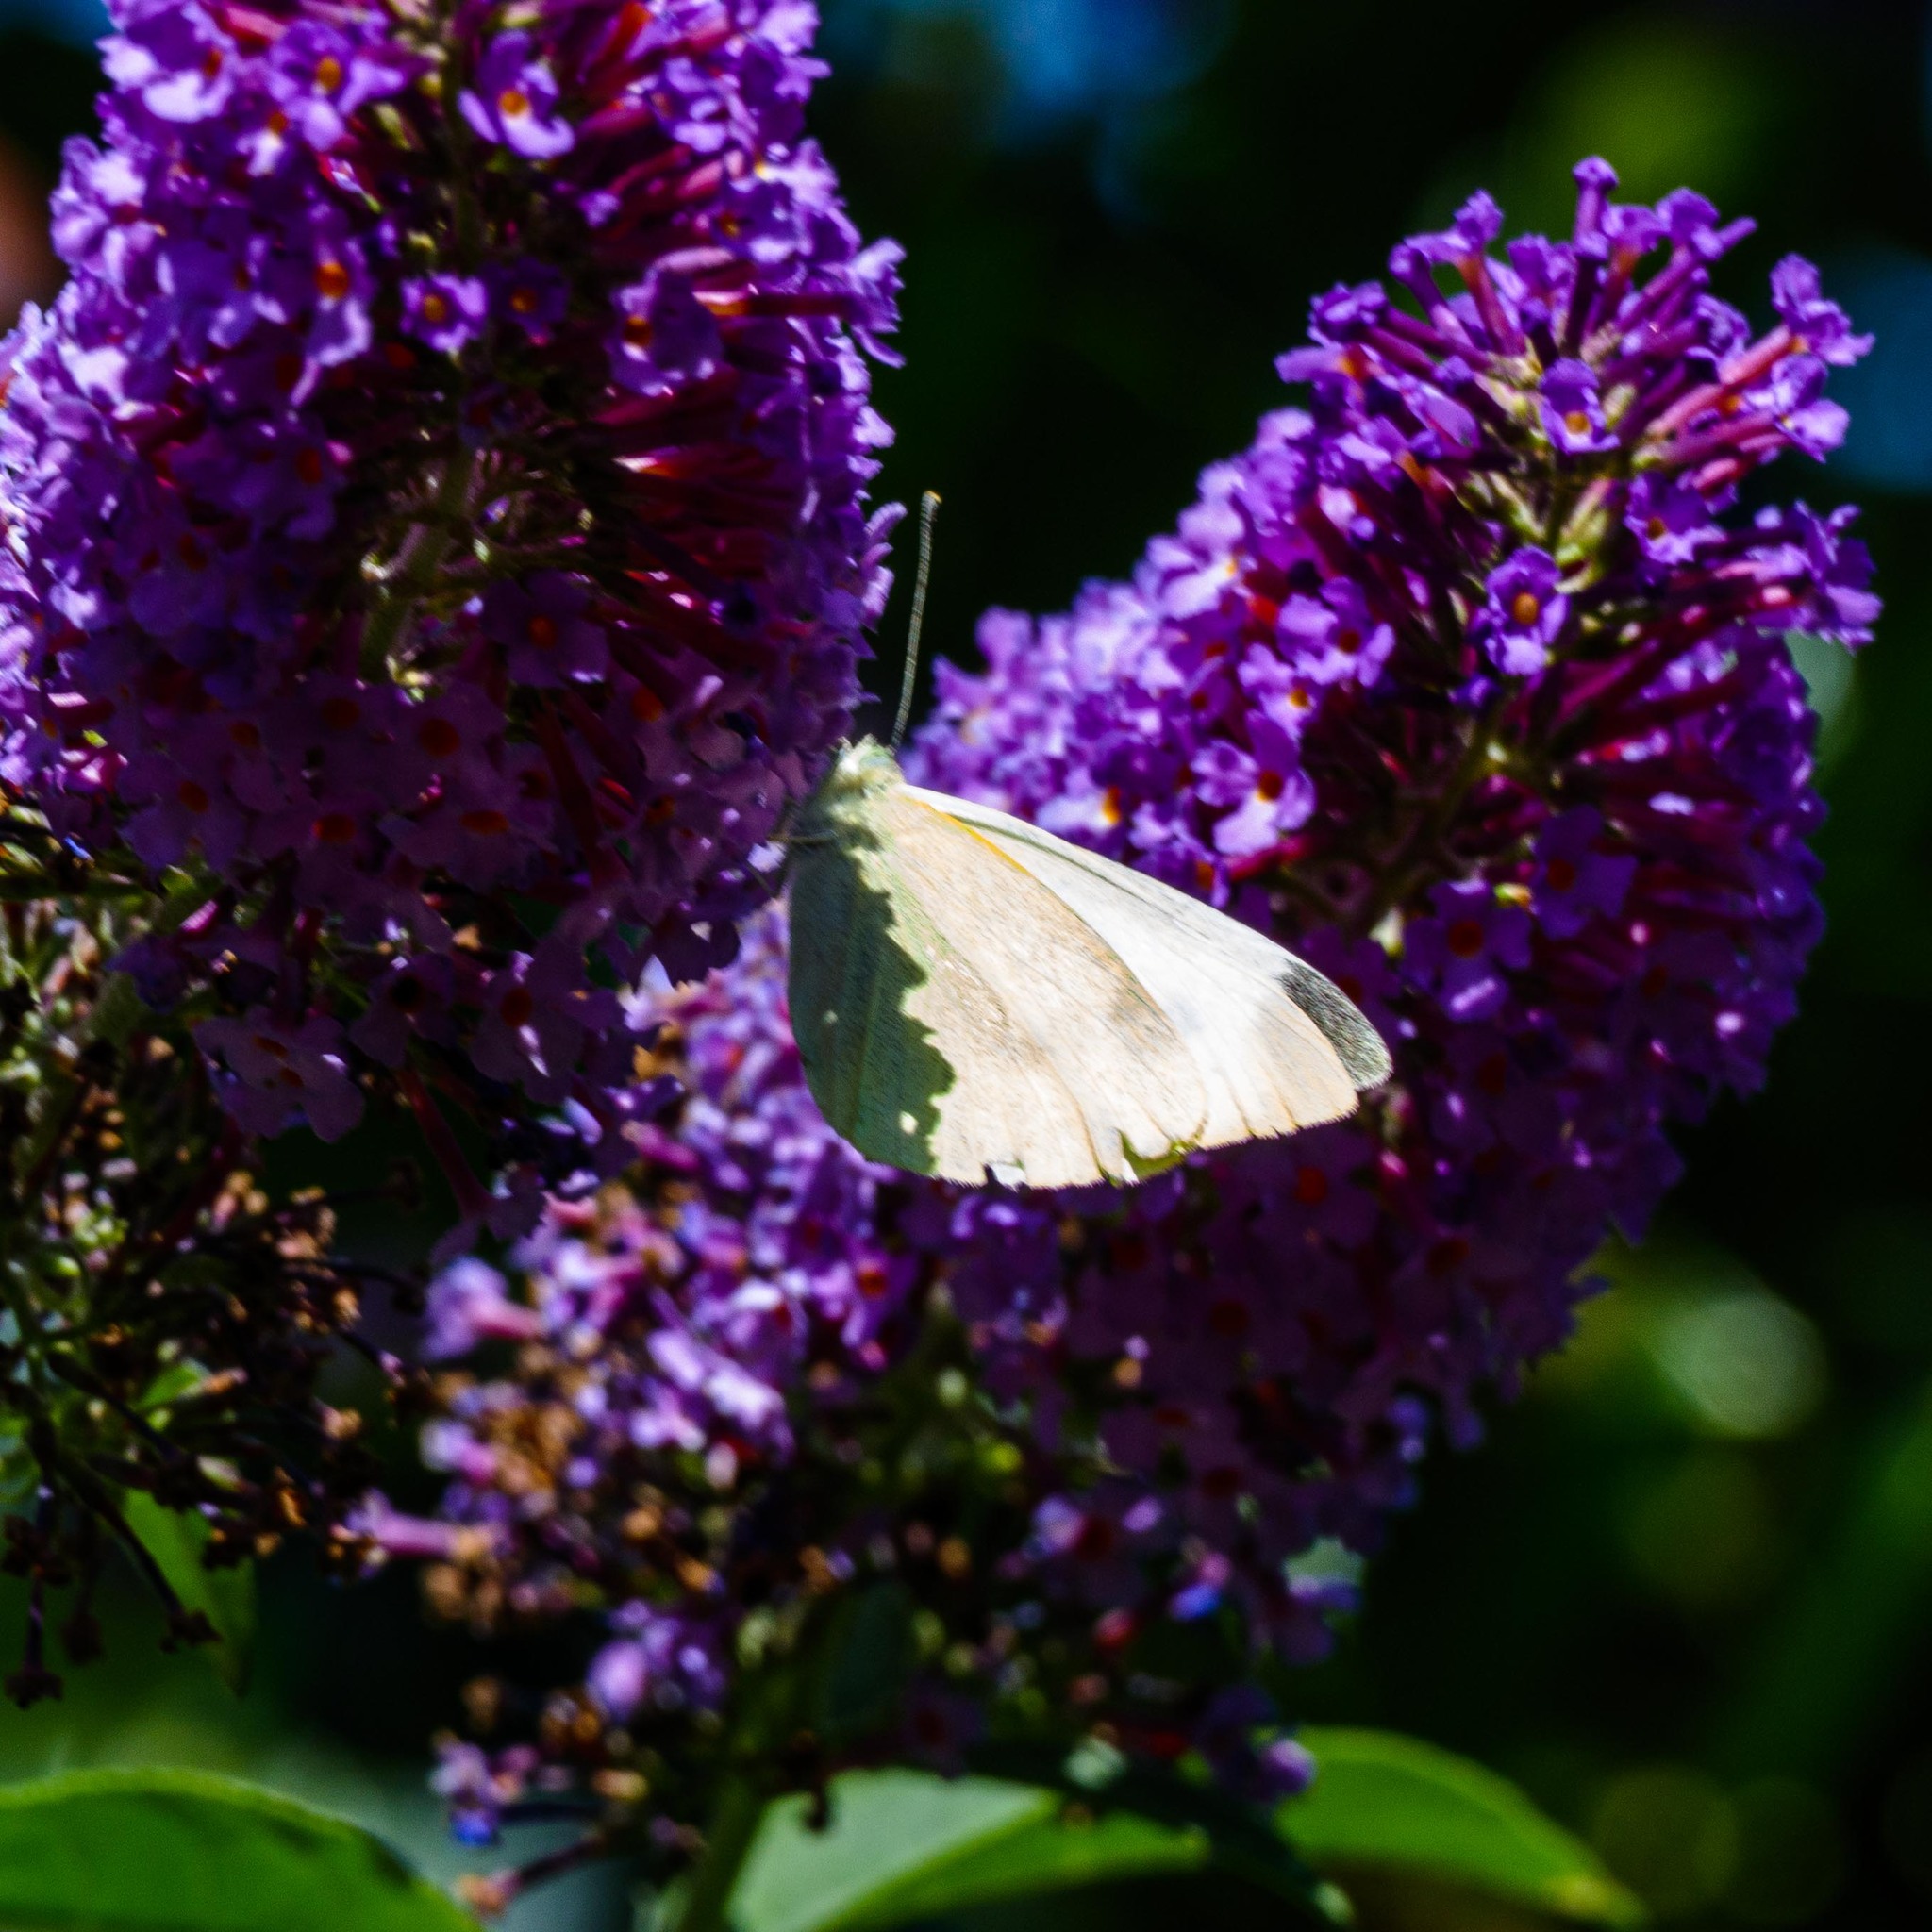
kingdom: Animalia
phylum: Arthropoda
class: Insecta
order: Lepidoptera
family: Pieridae
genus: Pieris
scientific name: Pieris rapae
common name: Small white
